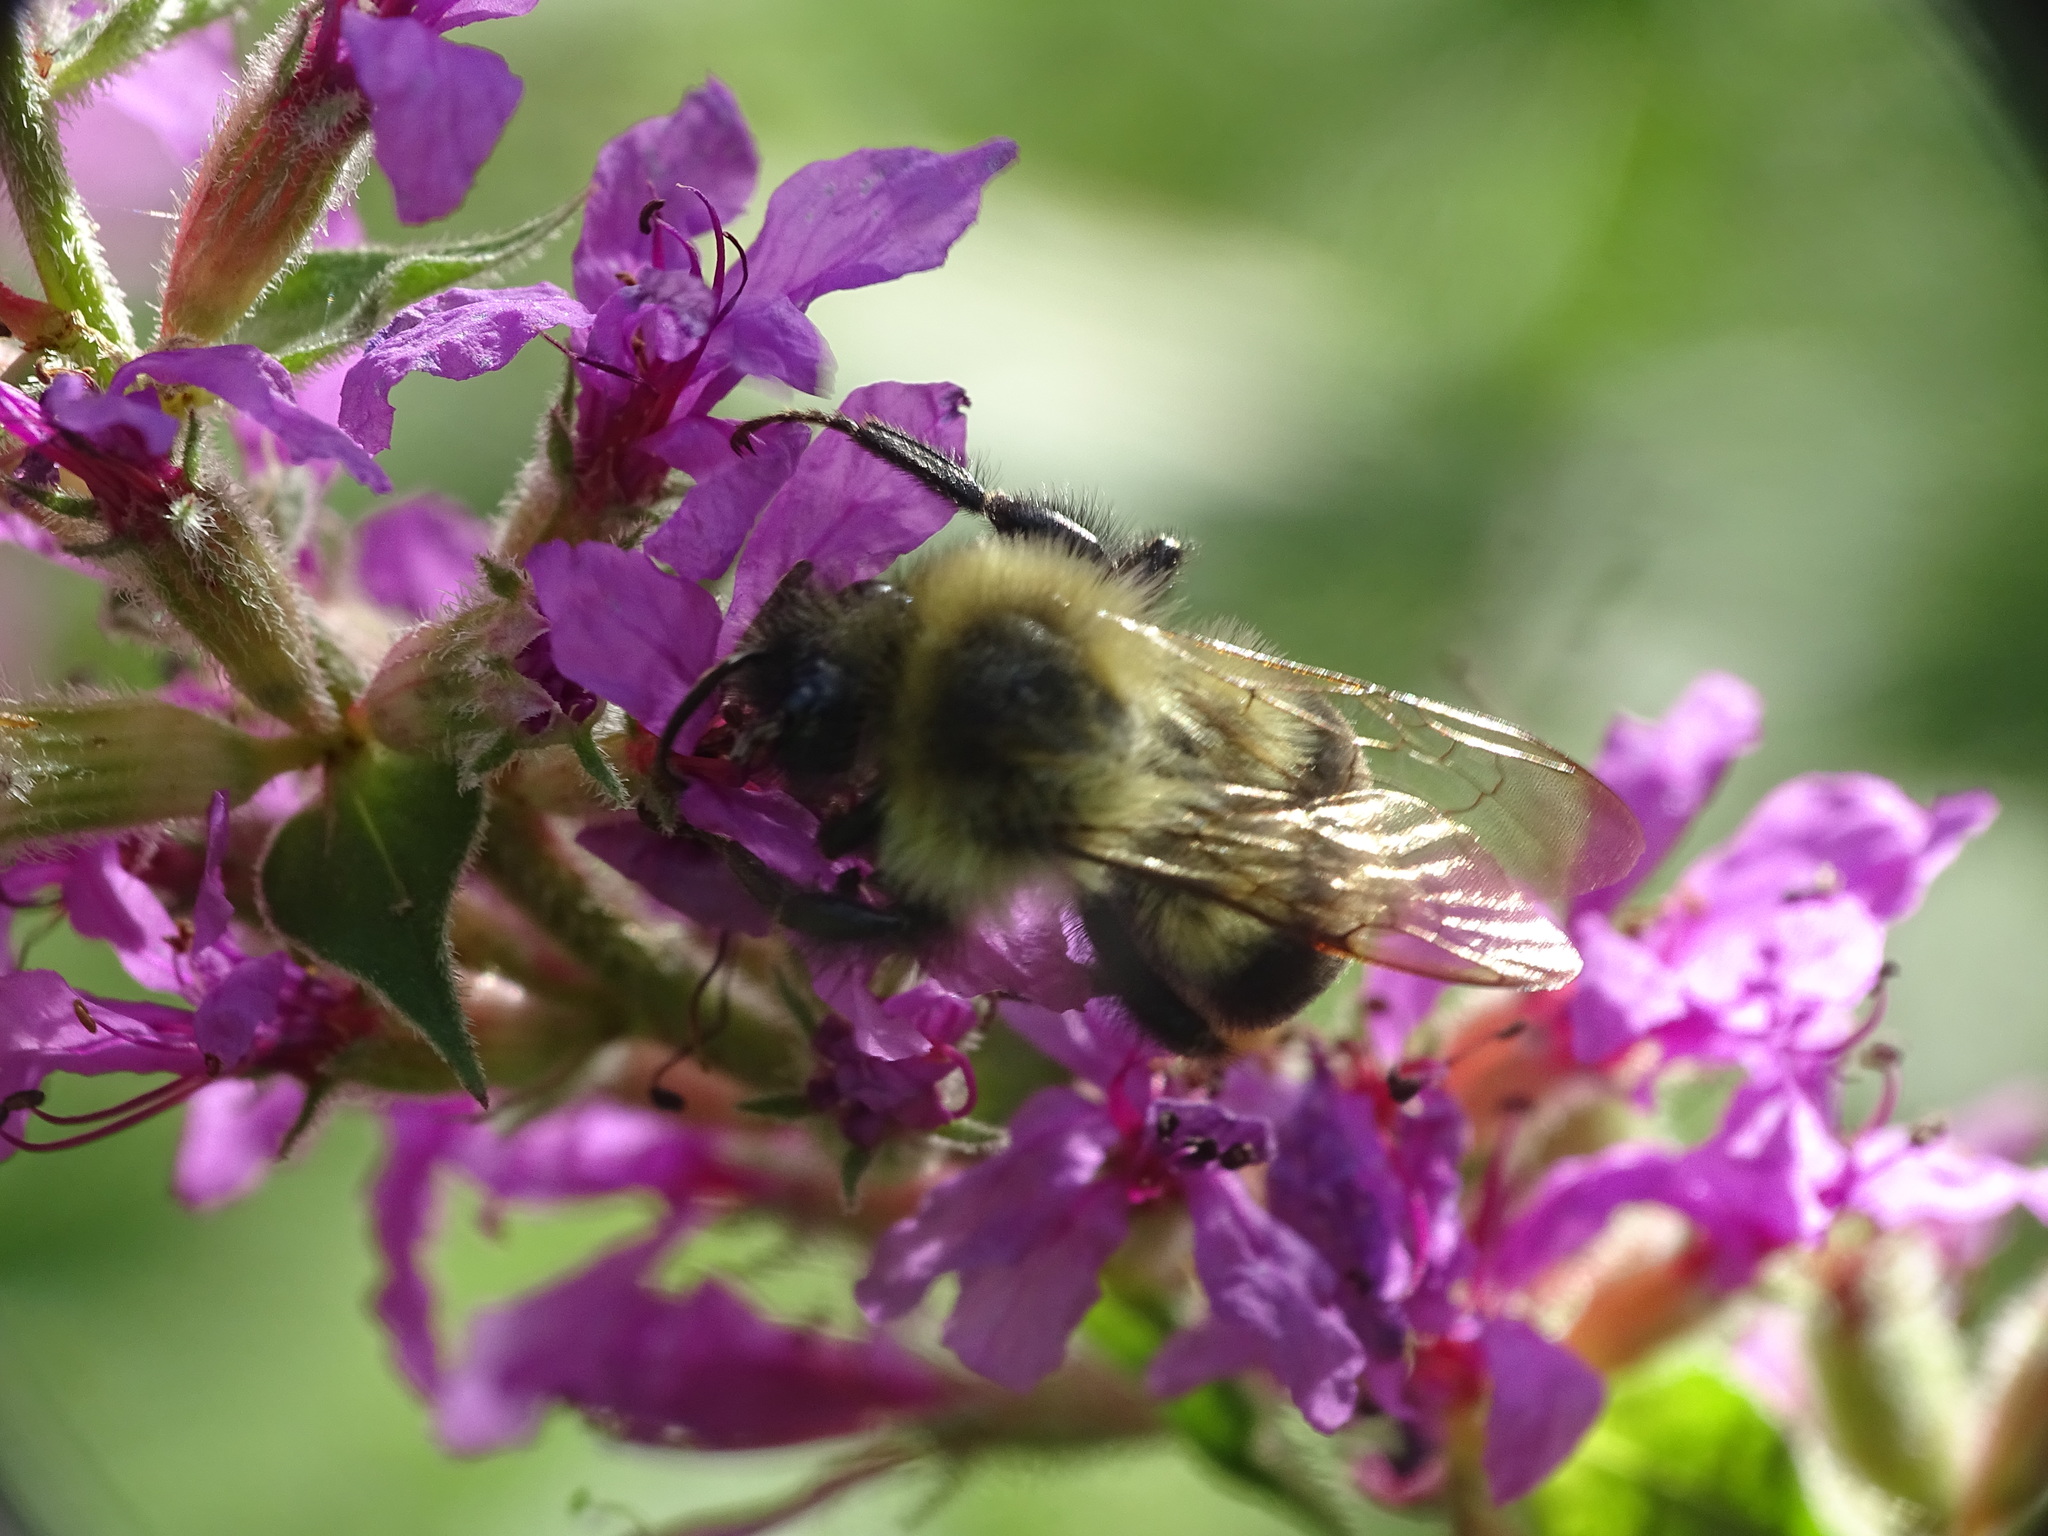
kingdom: Animalia
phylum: Arthropoda
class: Insecta
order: Hymenoptera
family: Apidae
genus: Bombus
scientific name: Bombus impatiens
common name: Common eastern bumble bee
